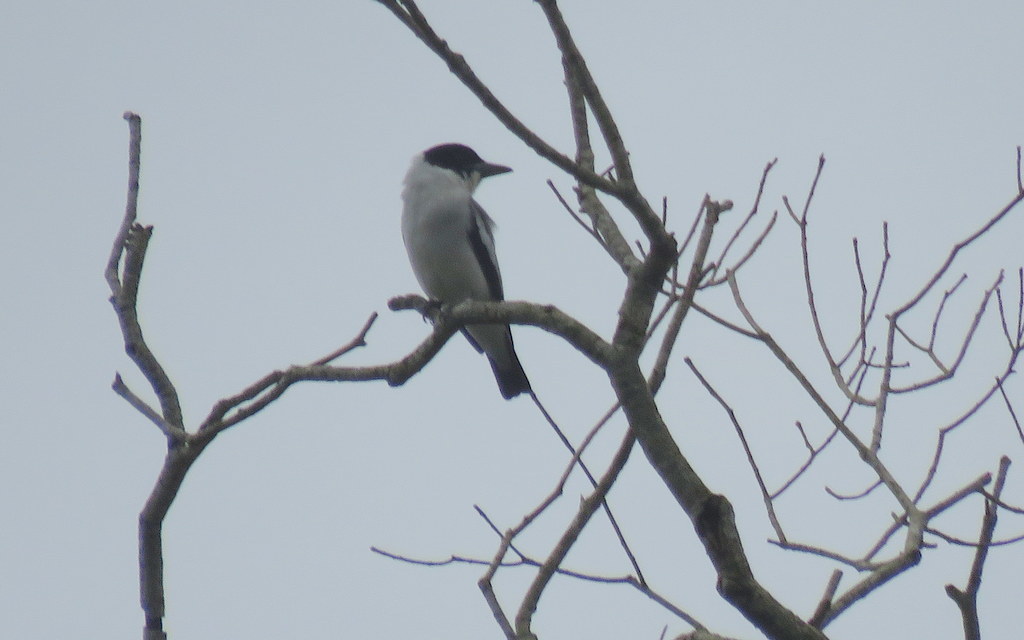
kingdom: Animalia
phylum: Chordata
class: Aves
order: Passeriformes
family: Cotingidae
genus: Tityra
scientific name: Tityra inquisitor
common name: Black-crowned tityra
